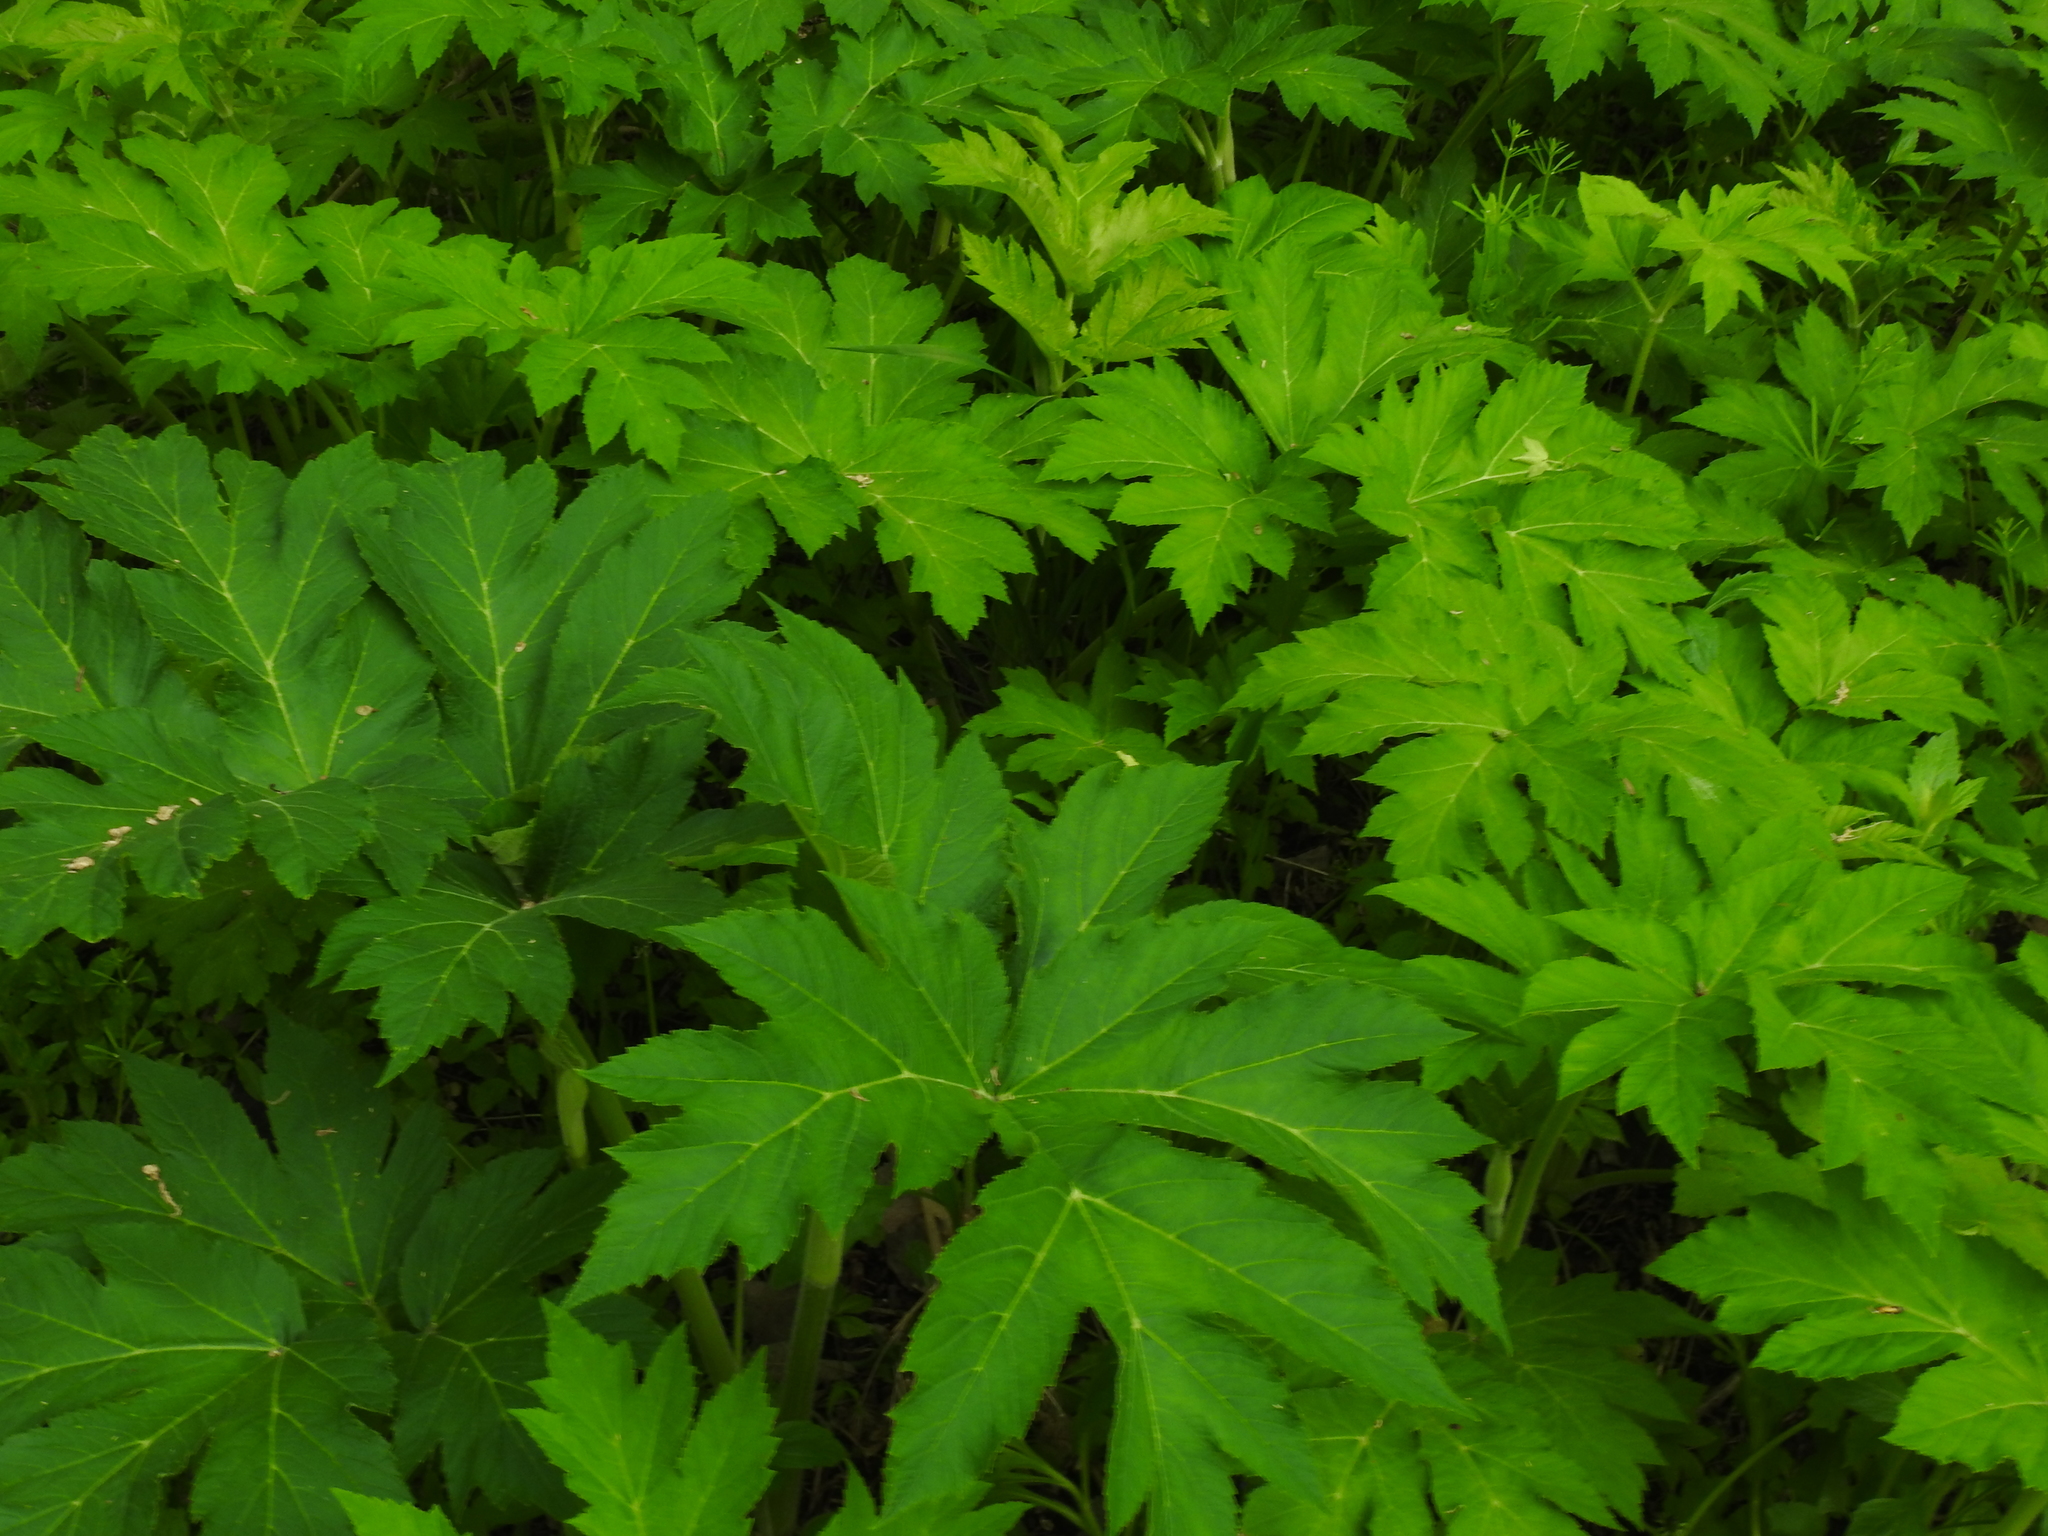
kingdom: Plantae
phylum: Tracheophyta
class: Magnoliopsida
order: Apiales
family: Apiaceae
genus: Heracleum
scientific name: Heracleum maximum
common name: American cow parsnip
